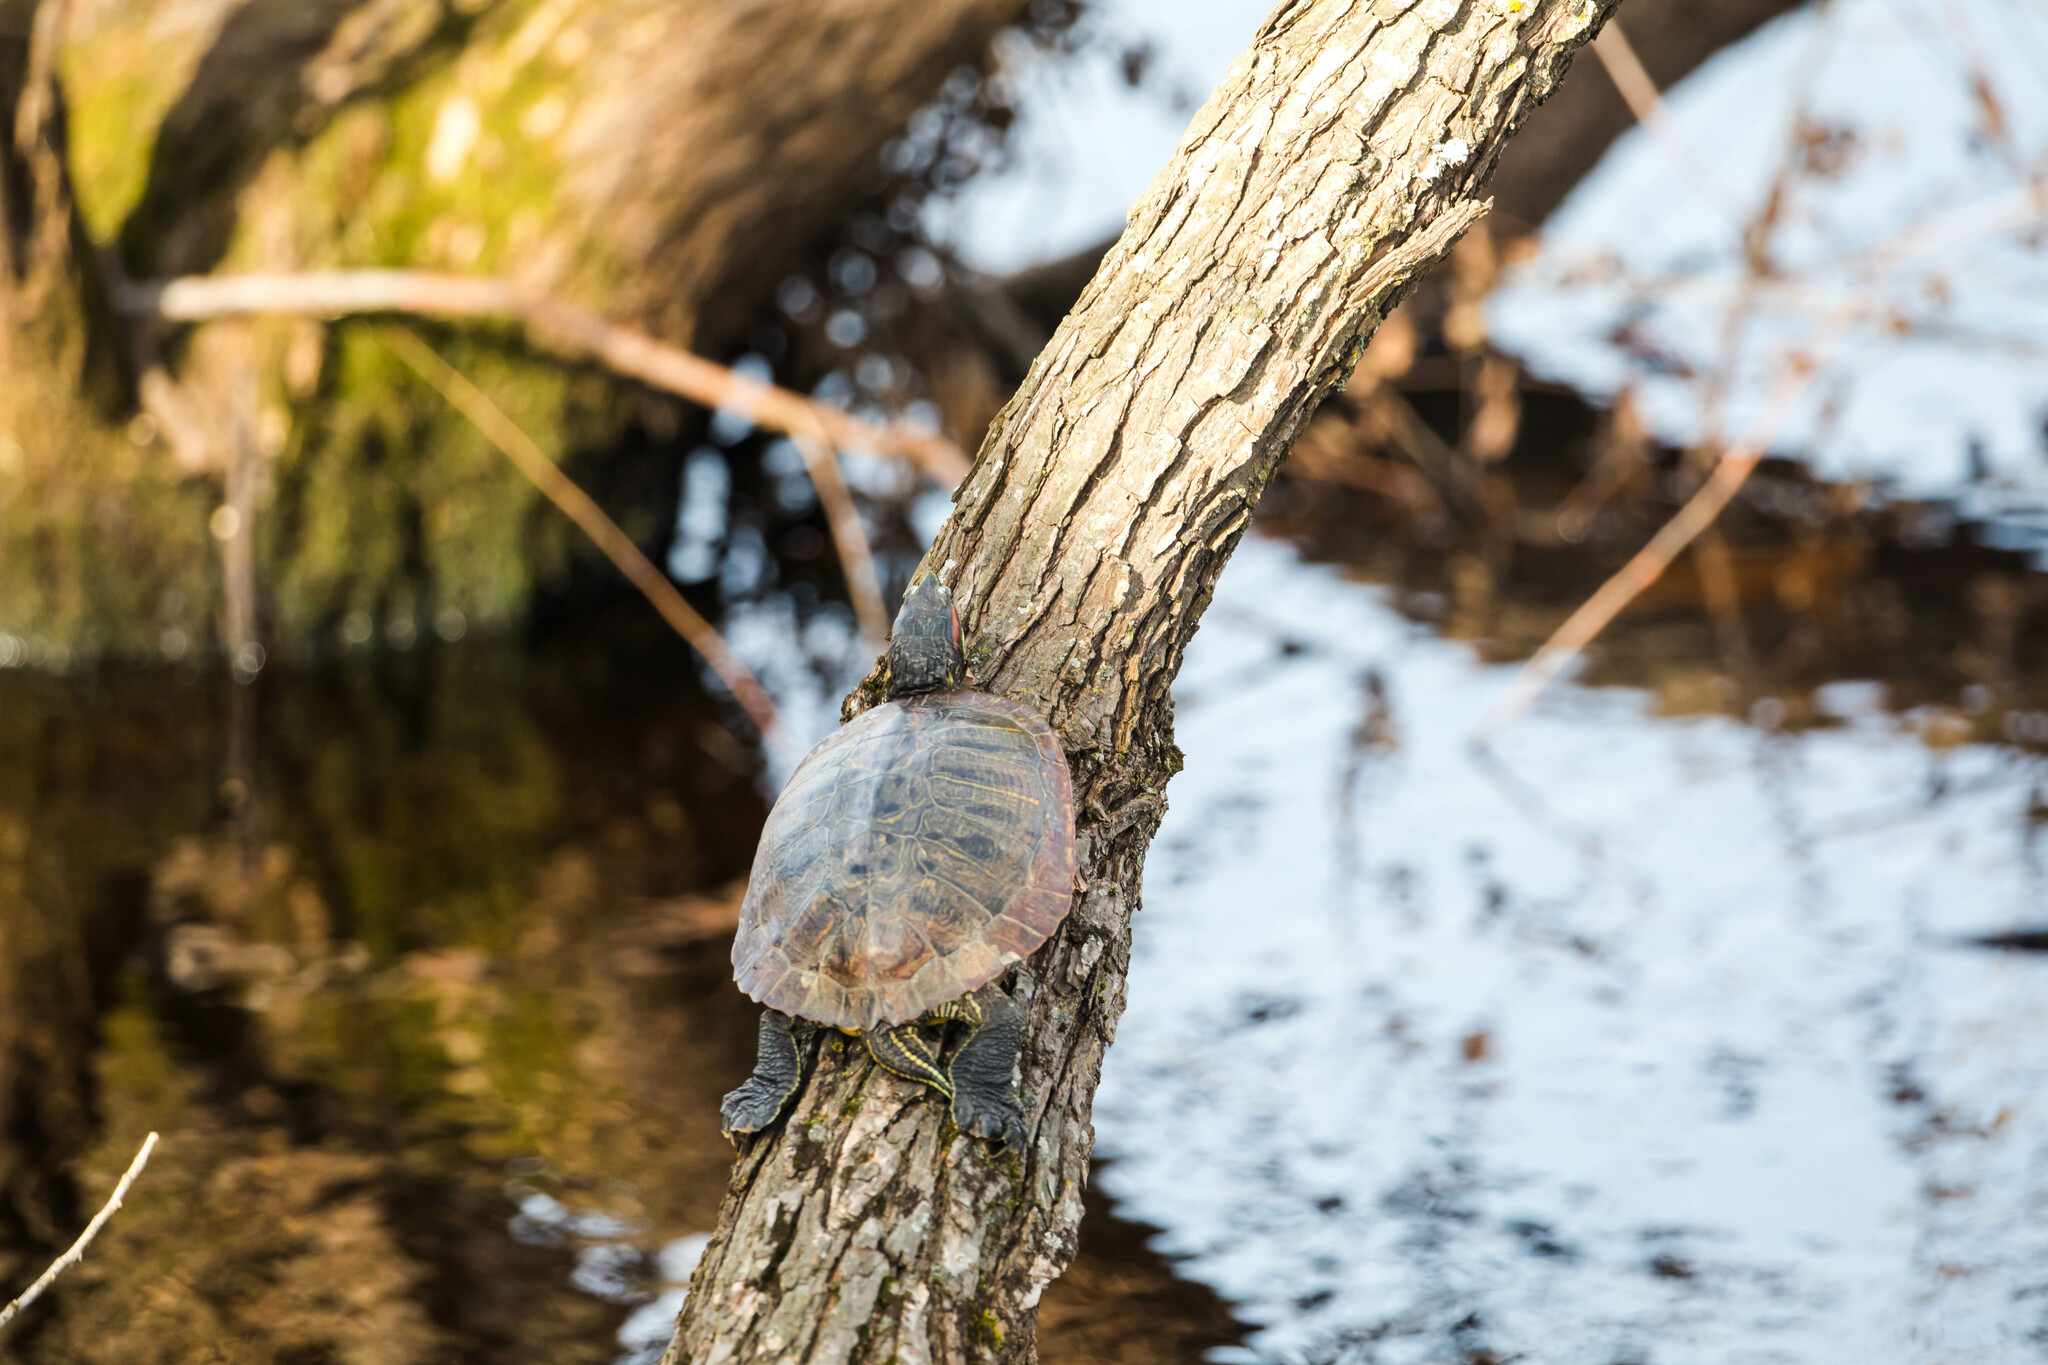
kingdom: Animalia
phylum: Chordata
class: Testudines
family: Emydidae
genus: Trachemys
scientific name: Trachemys scripta
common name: Slider
